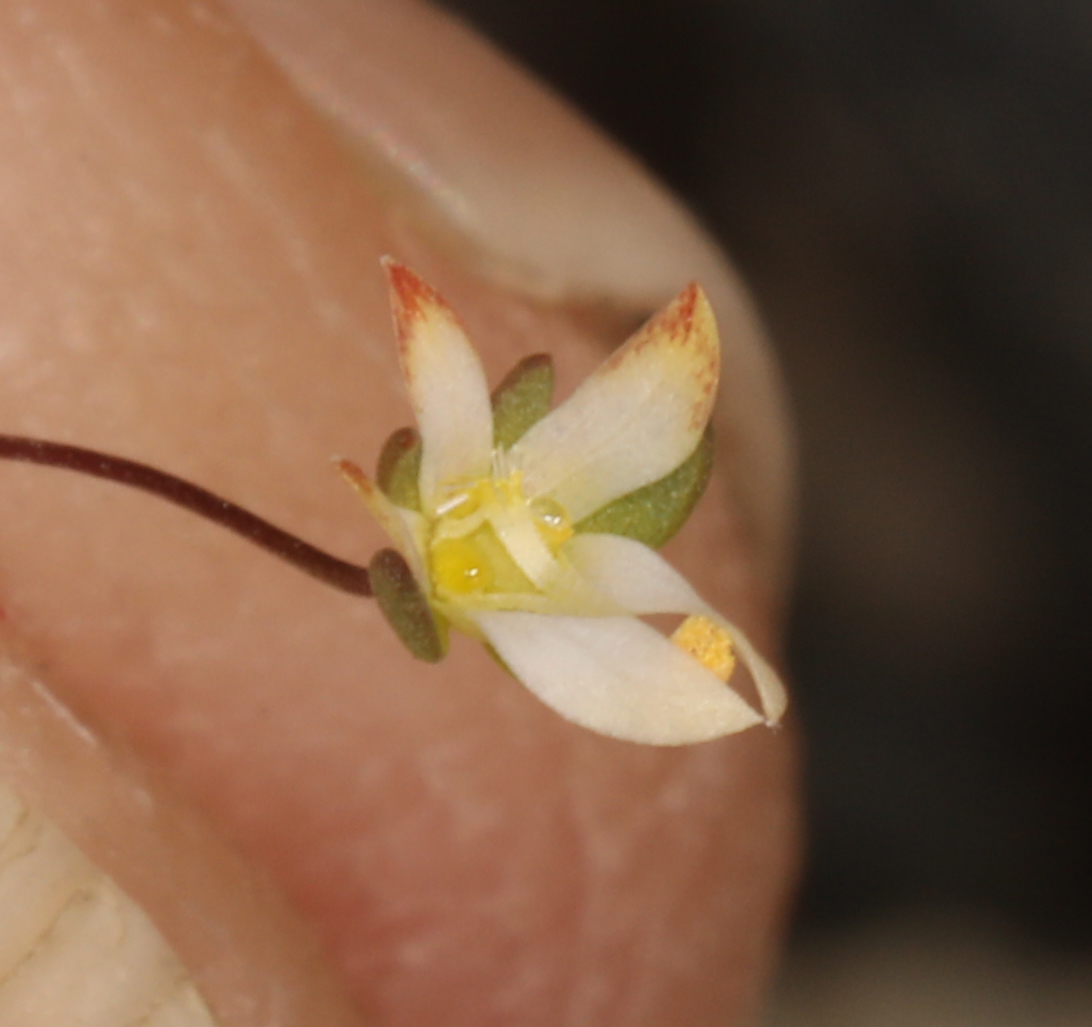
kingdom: Plantae
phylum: Tracheophyta
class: Magnoliopsida
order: Asterales
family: Campanulaceae
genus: Nemacladus
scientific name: Nemacladus morefieldii
